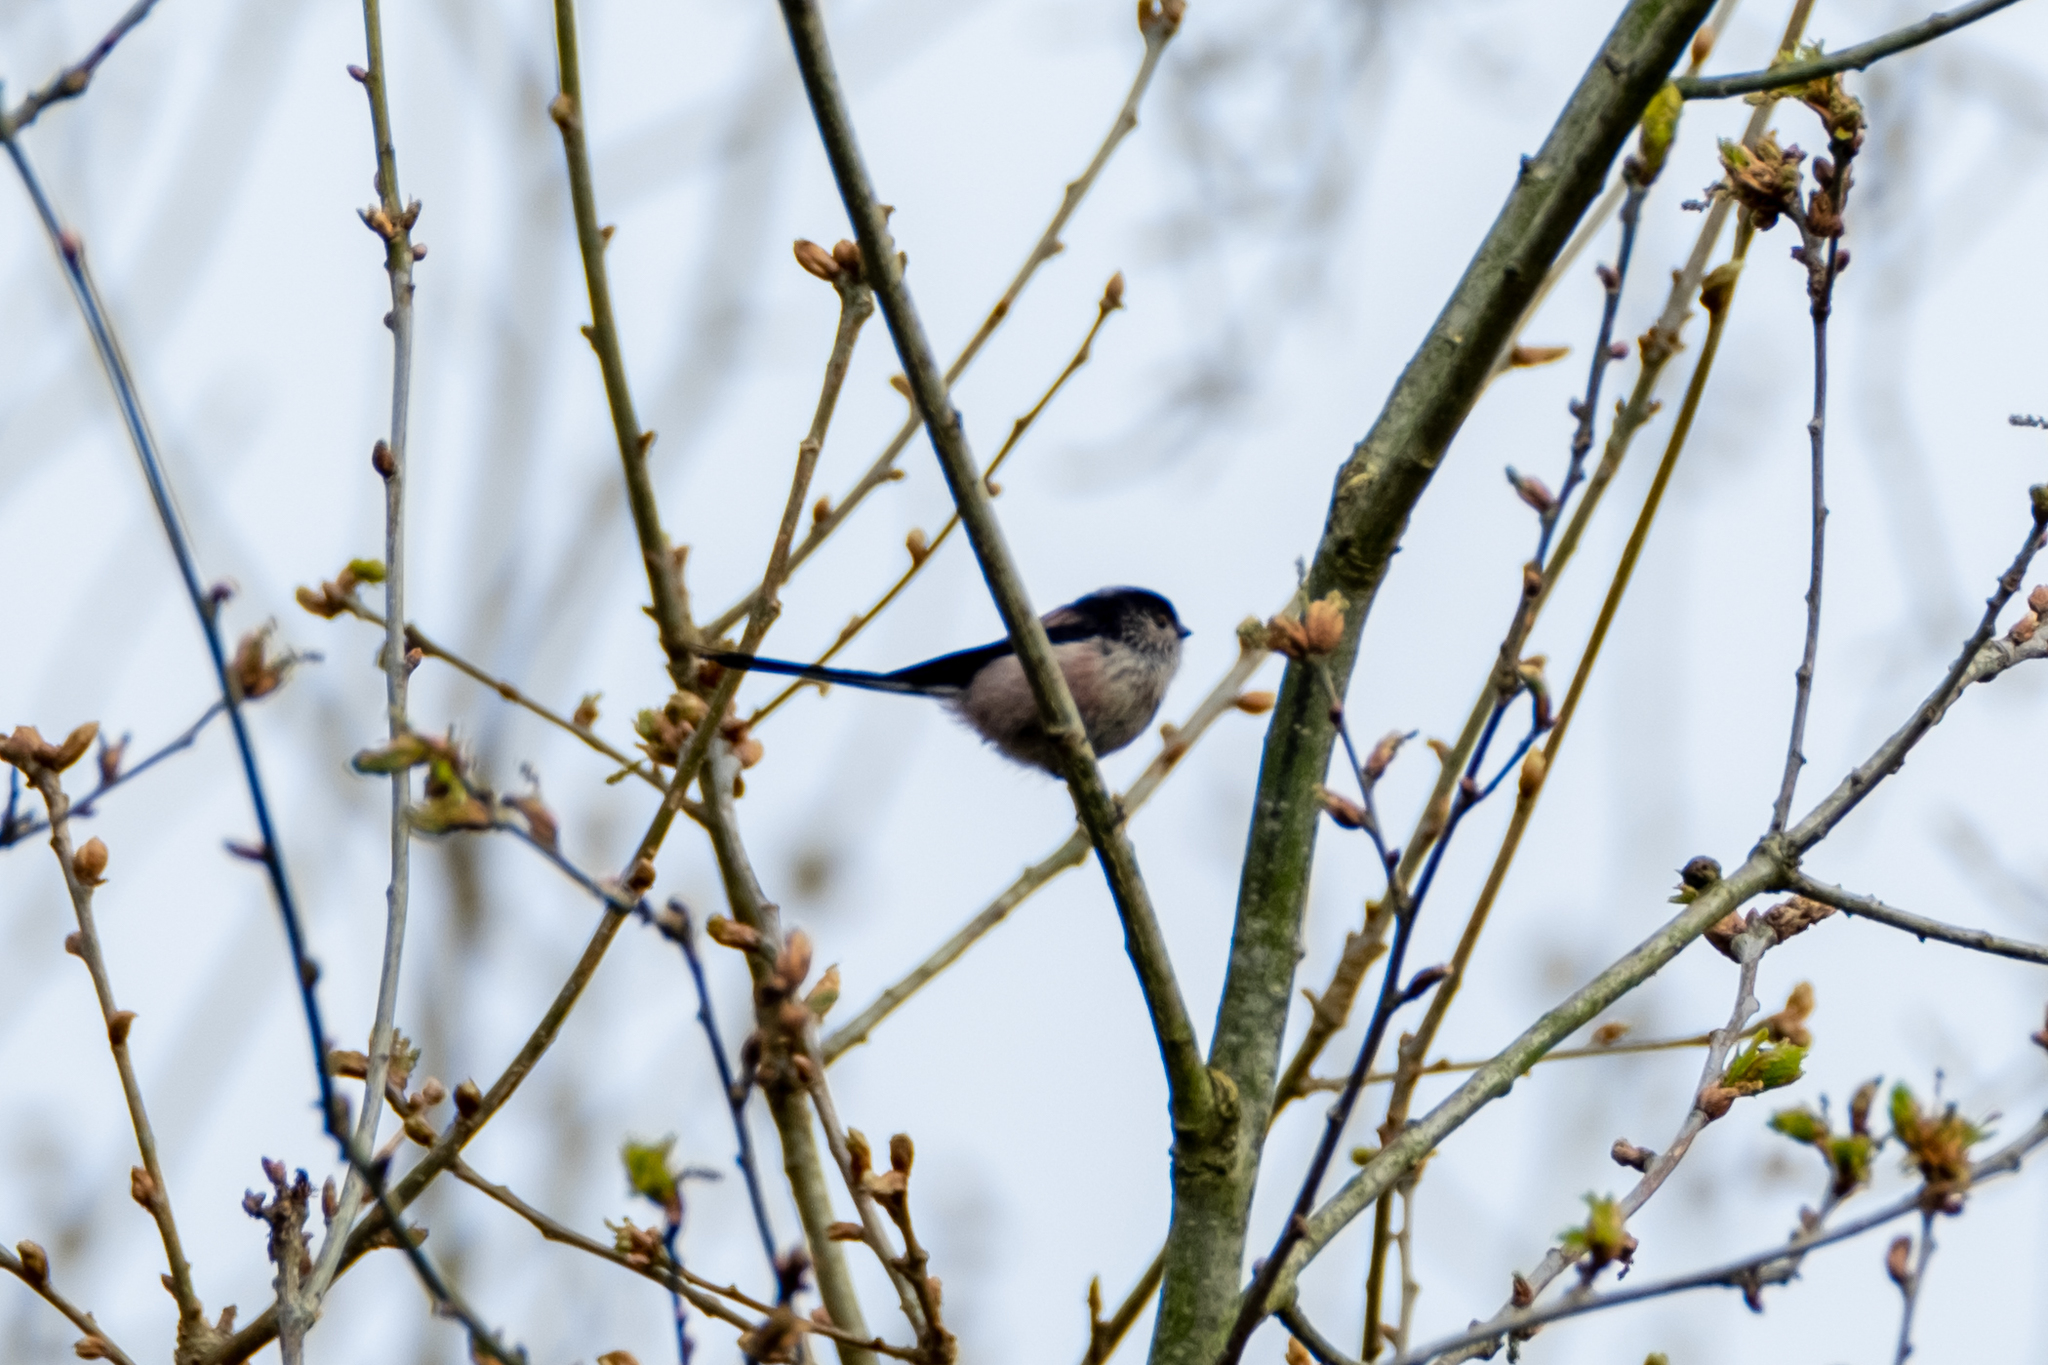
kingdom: Animalia
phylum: Chordata
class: Aves
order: Passeriformes
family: Aegithalidae
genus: Aegithalos
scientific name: Aegithalos caudatus
